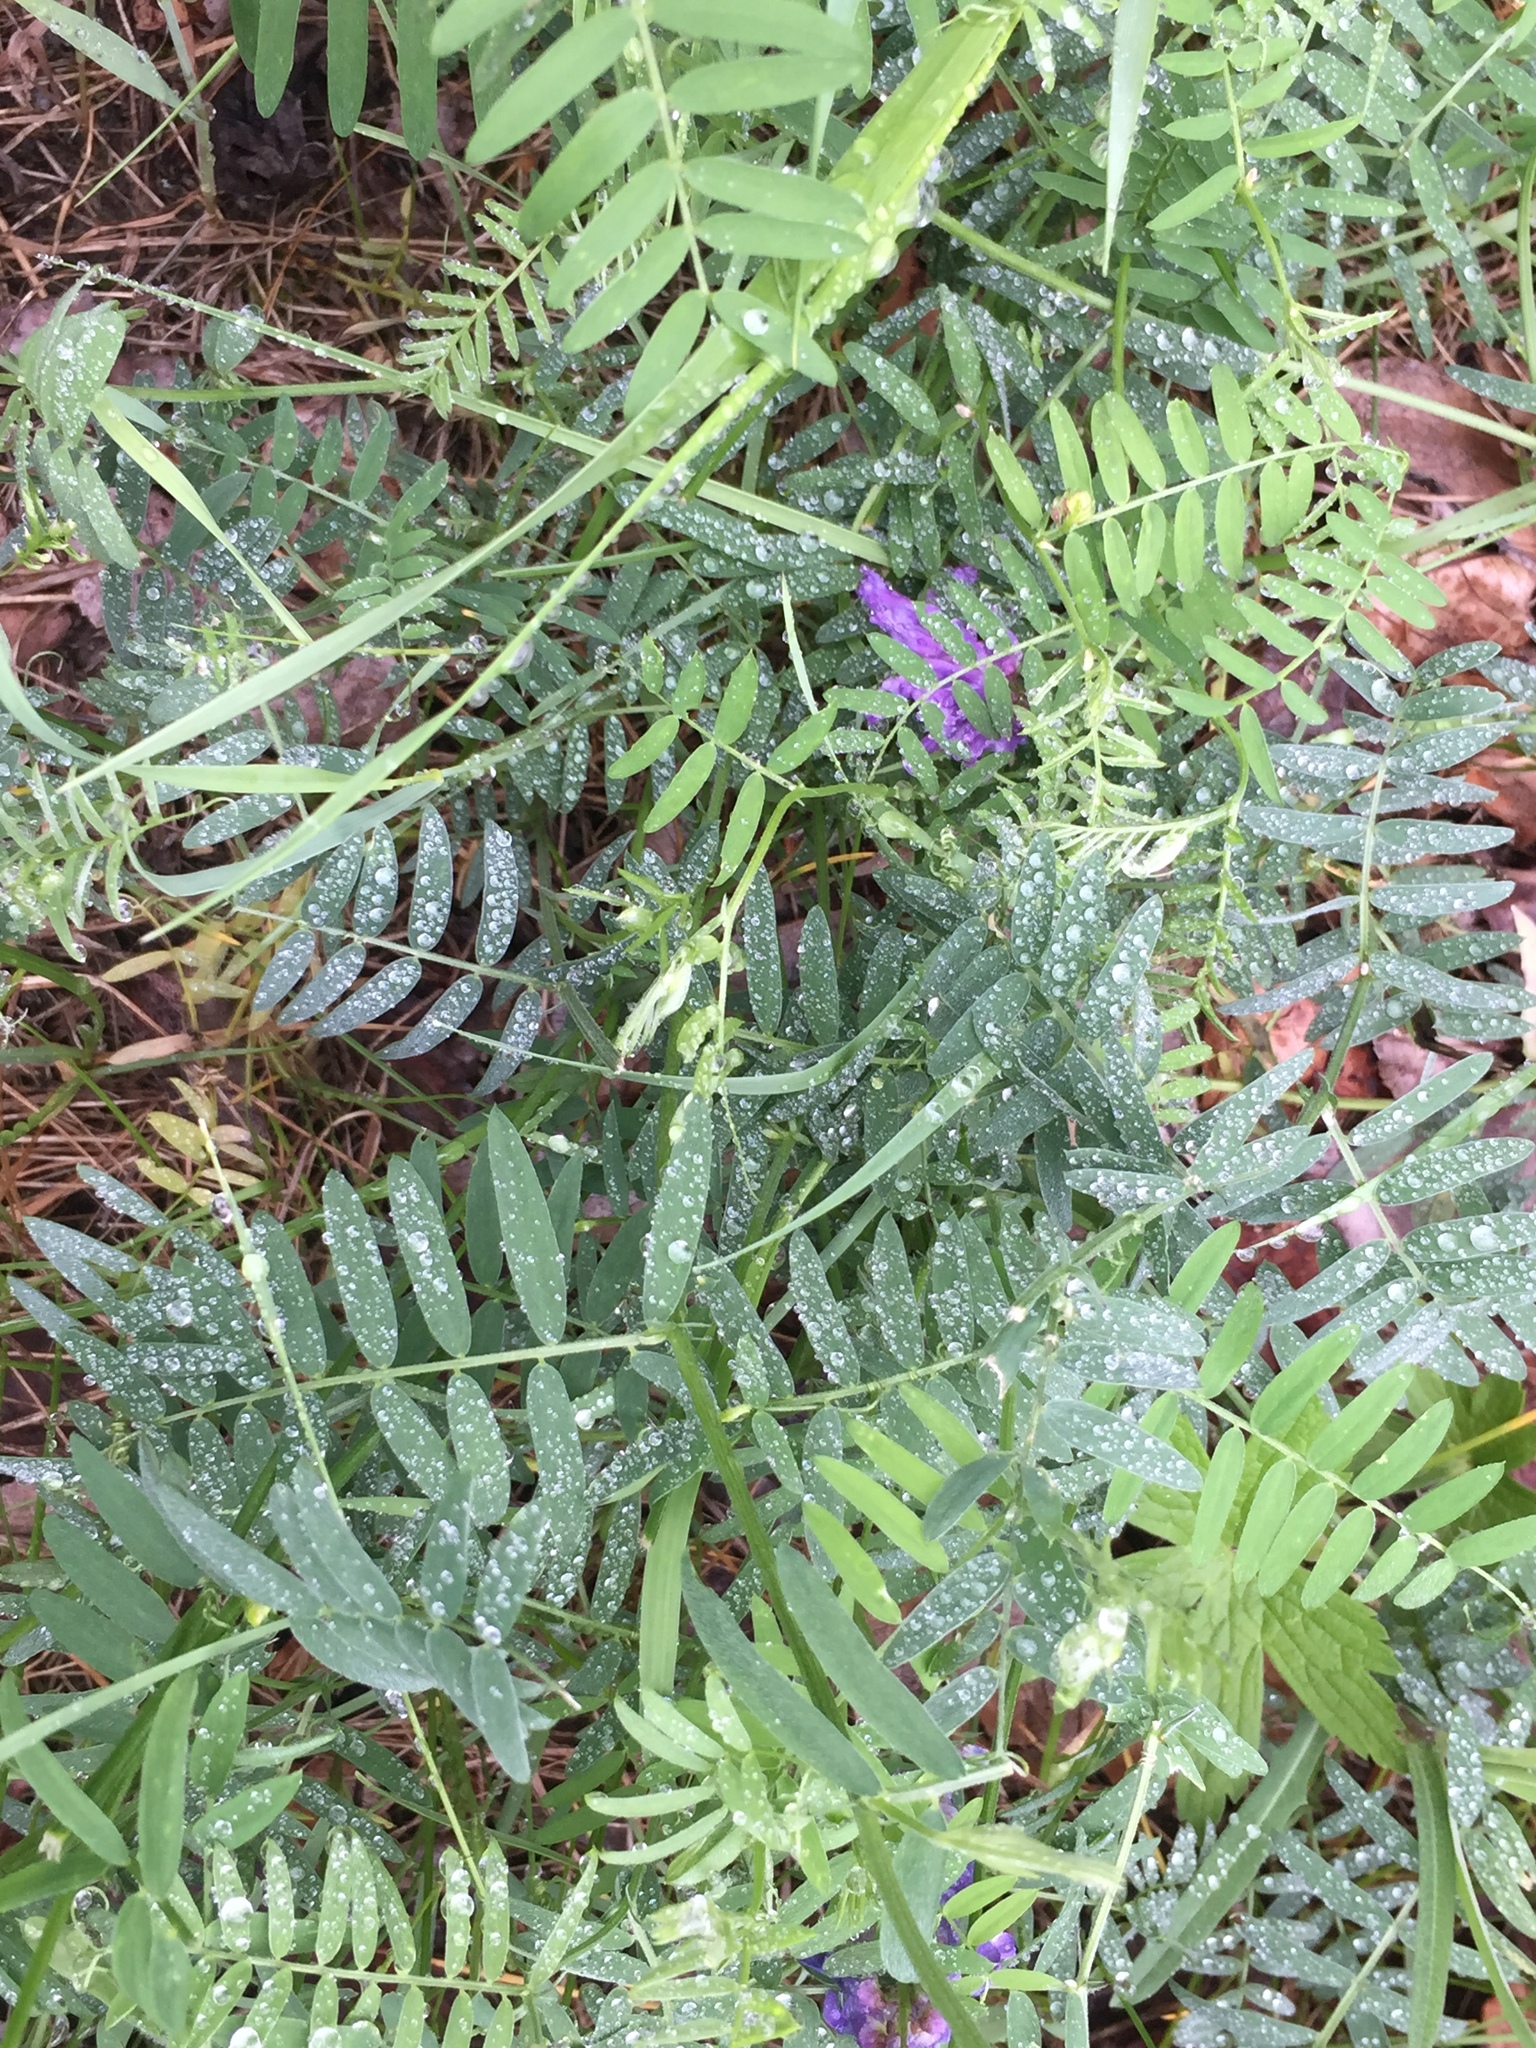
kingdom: Plantae
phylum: Tracheophyta
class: Magnoliopsida
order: Fabales
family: Fabaceae
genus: Vicia
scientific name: Vicia cracca
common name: Bird vetch
